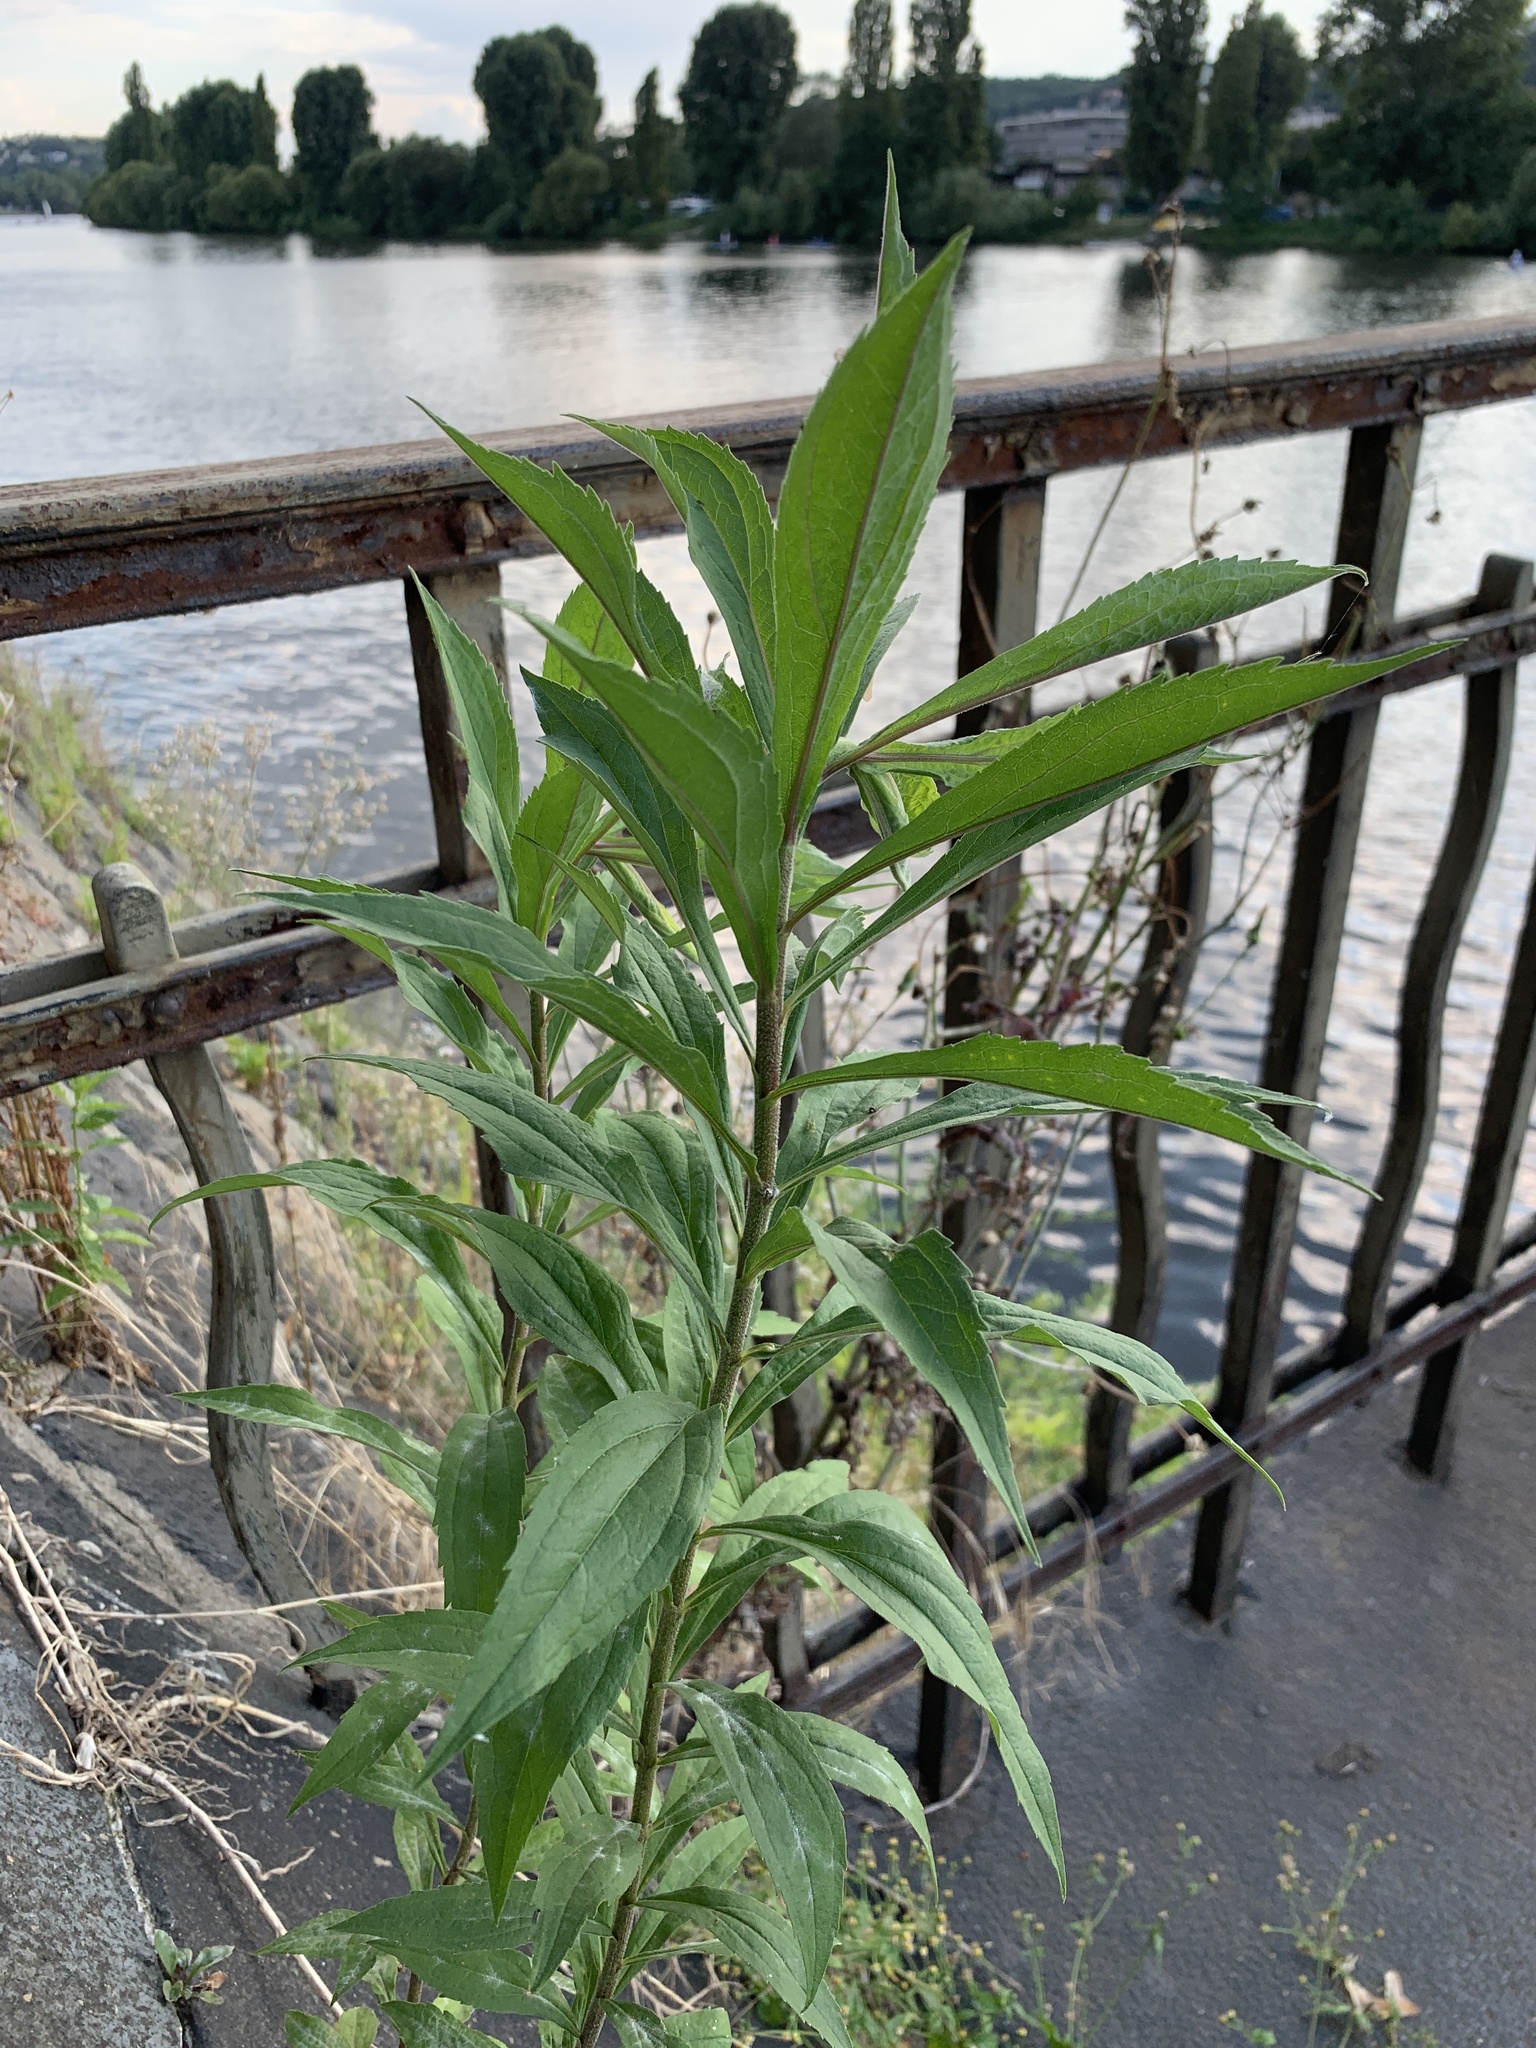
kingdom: Plantae
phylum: Tracheophyta
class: Magnoliopsida
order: Asterales
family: Asteraceae
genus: Solidago
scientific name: Solidago canadensis
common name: Canada goldenrod
